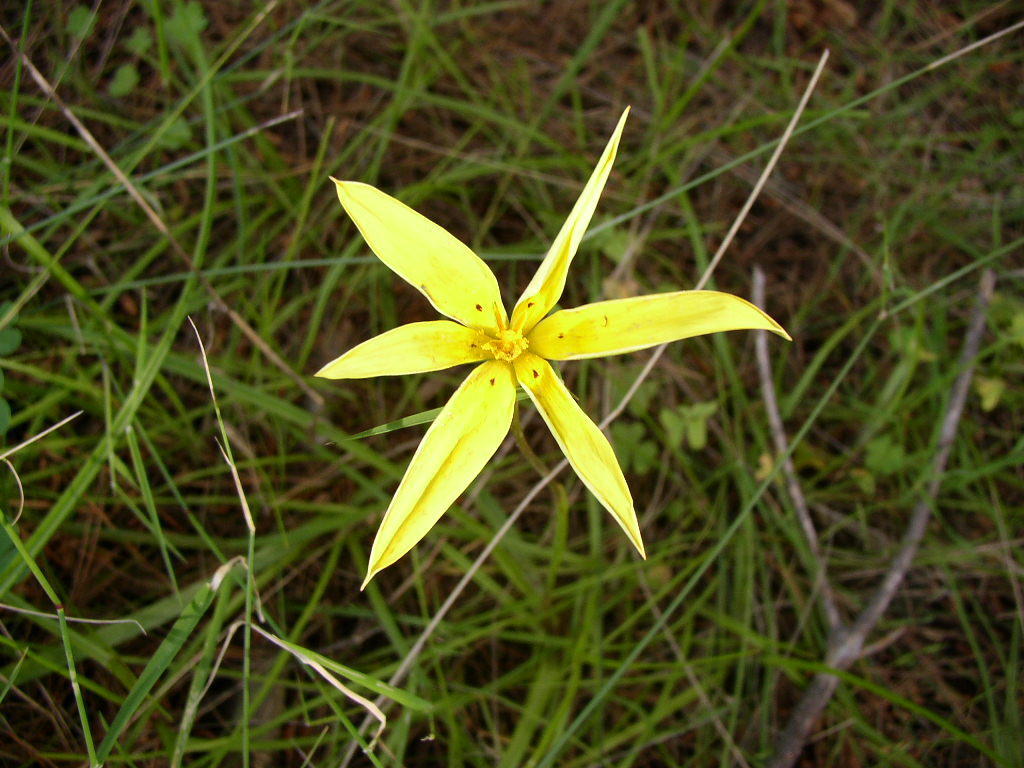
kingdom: Plantae
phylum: Tracheophyta
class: Liliopsida
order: Asparagales
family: Hypoxidaceae
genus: Pauridia
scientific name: Pauridia capensis
